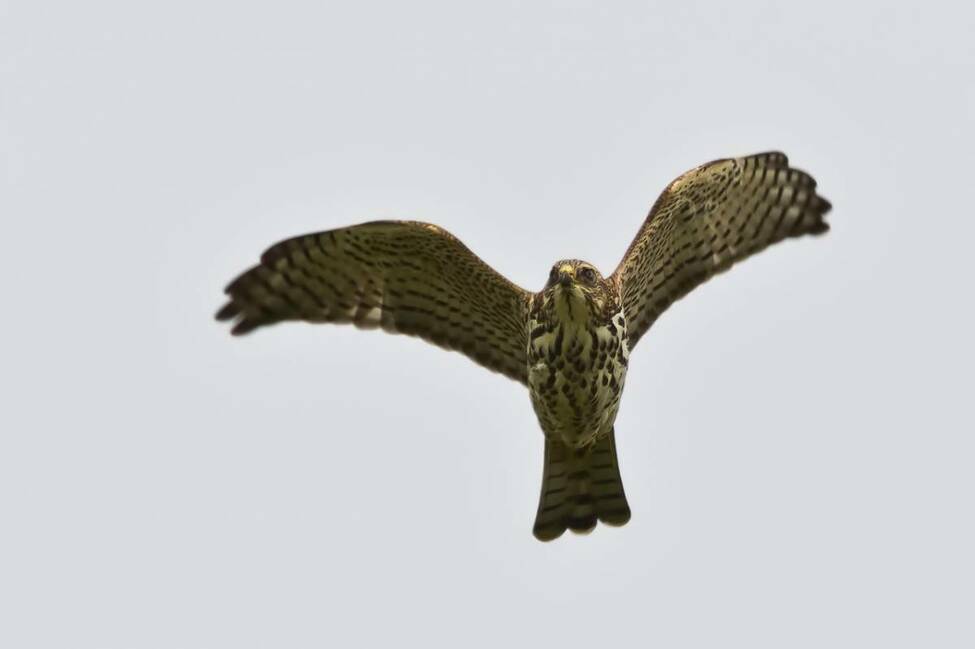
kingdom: Animalia
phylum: Chordata
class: Aves
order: Accipitriformes
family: Accipitridae
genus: Accipiter
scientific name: Accipiter brevipes
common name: Levant sparrowhawk
